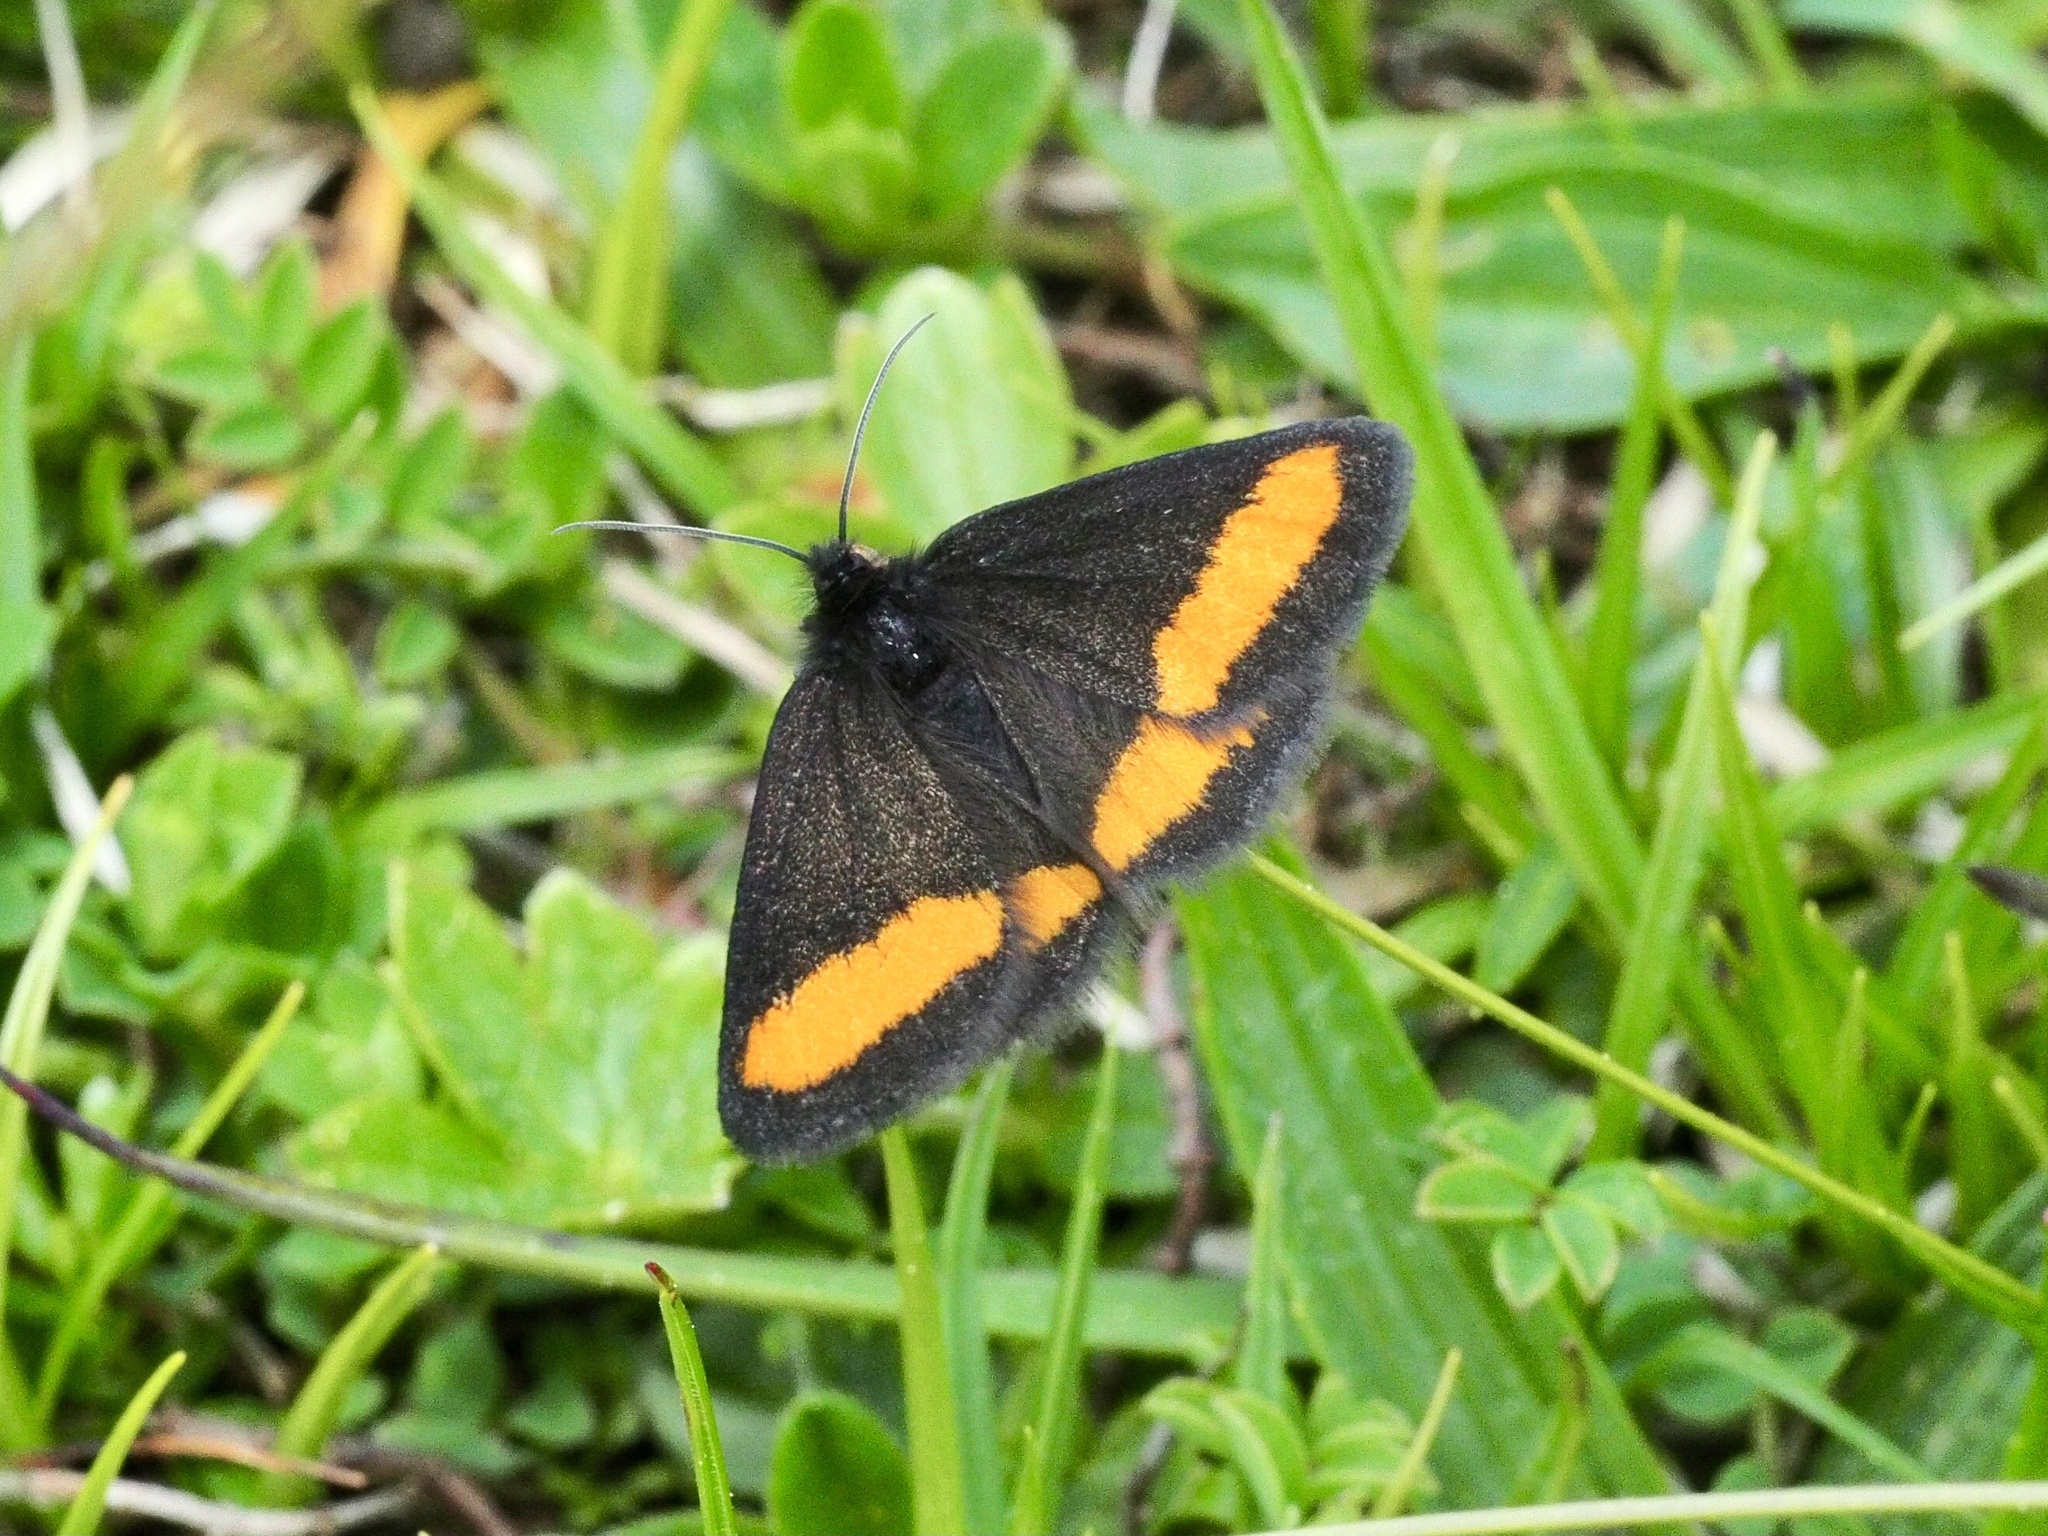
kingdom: Animalia
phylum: Arthropoda
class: Insecta
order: Lepidoptera
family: Geometridae
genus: Psodos
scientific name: Psodos quadrifaria
